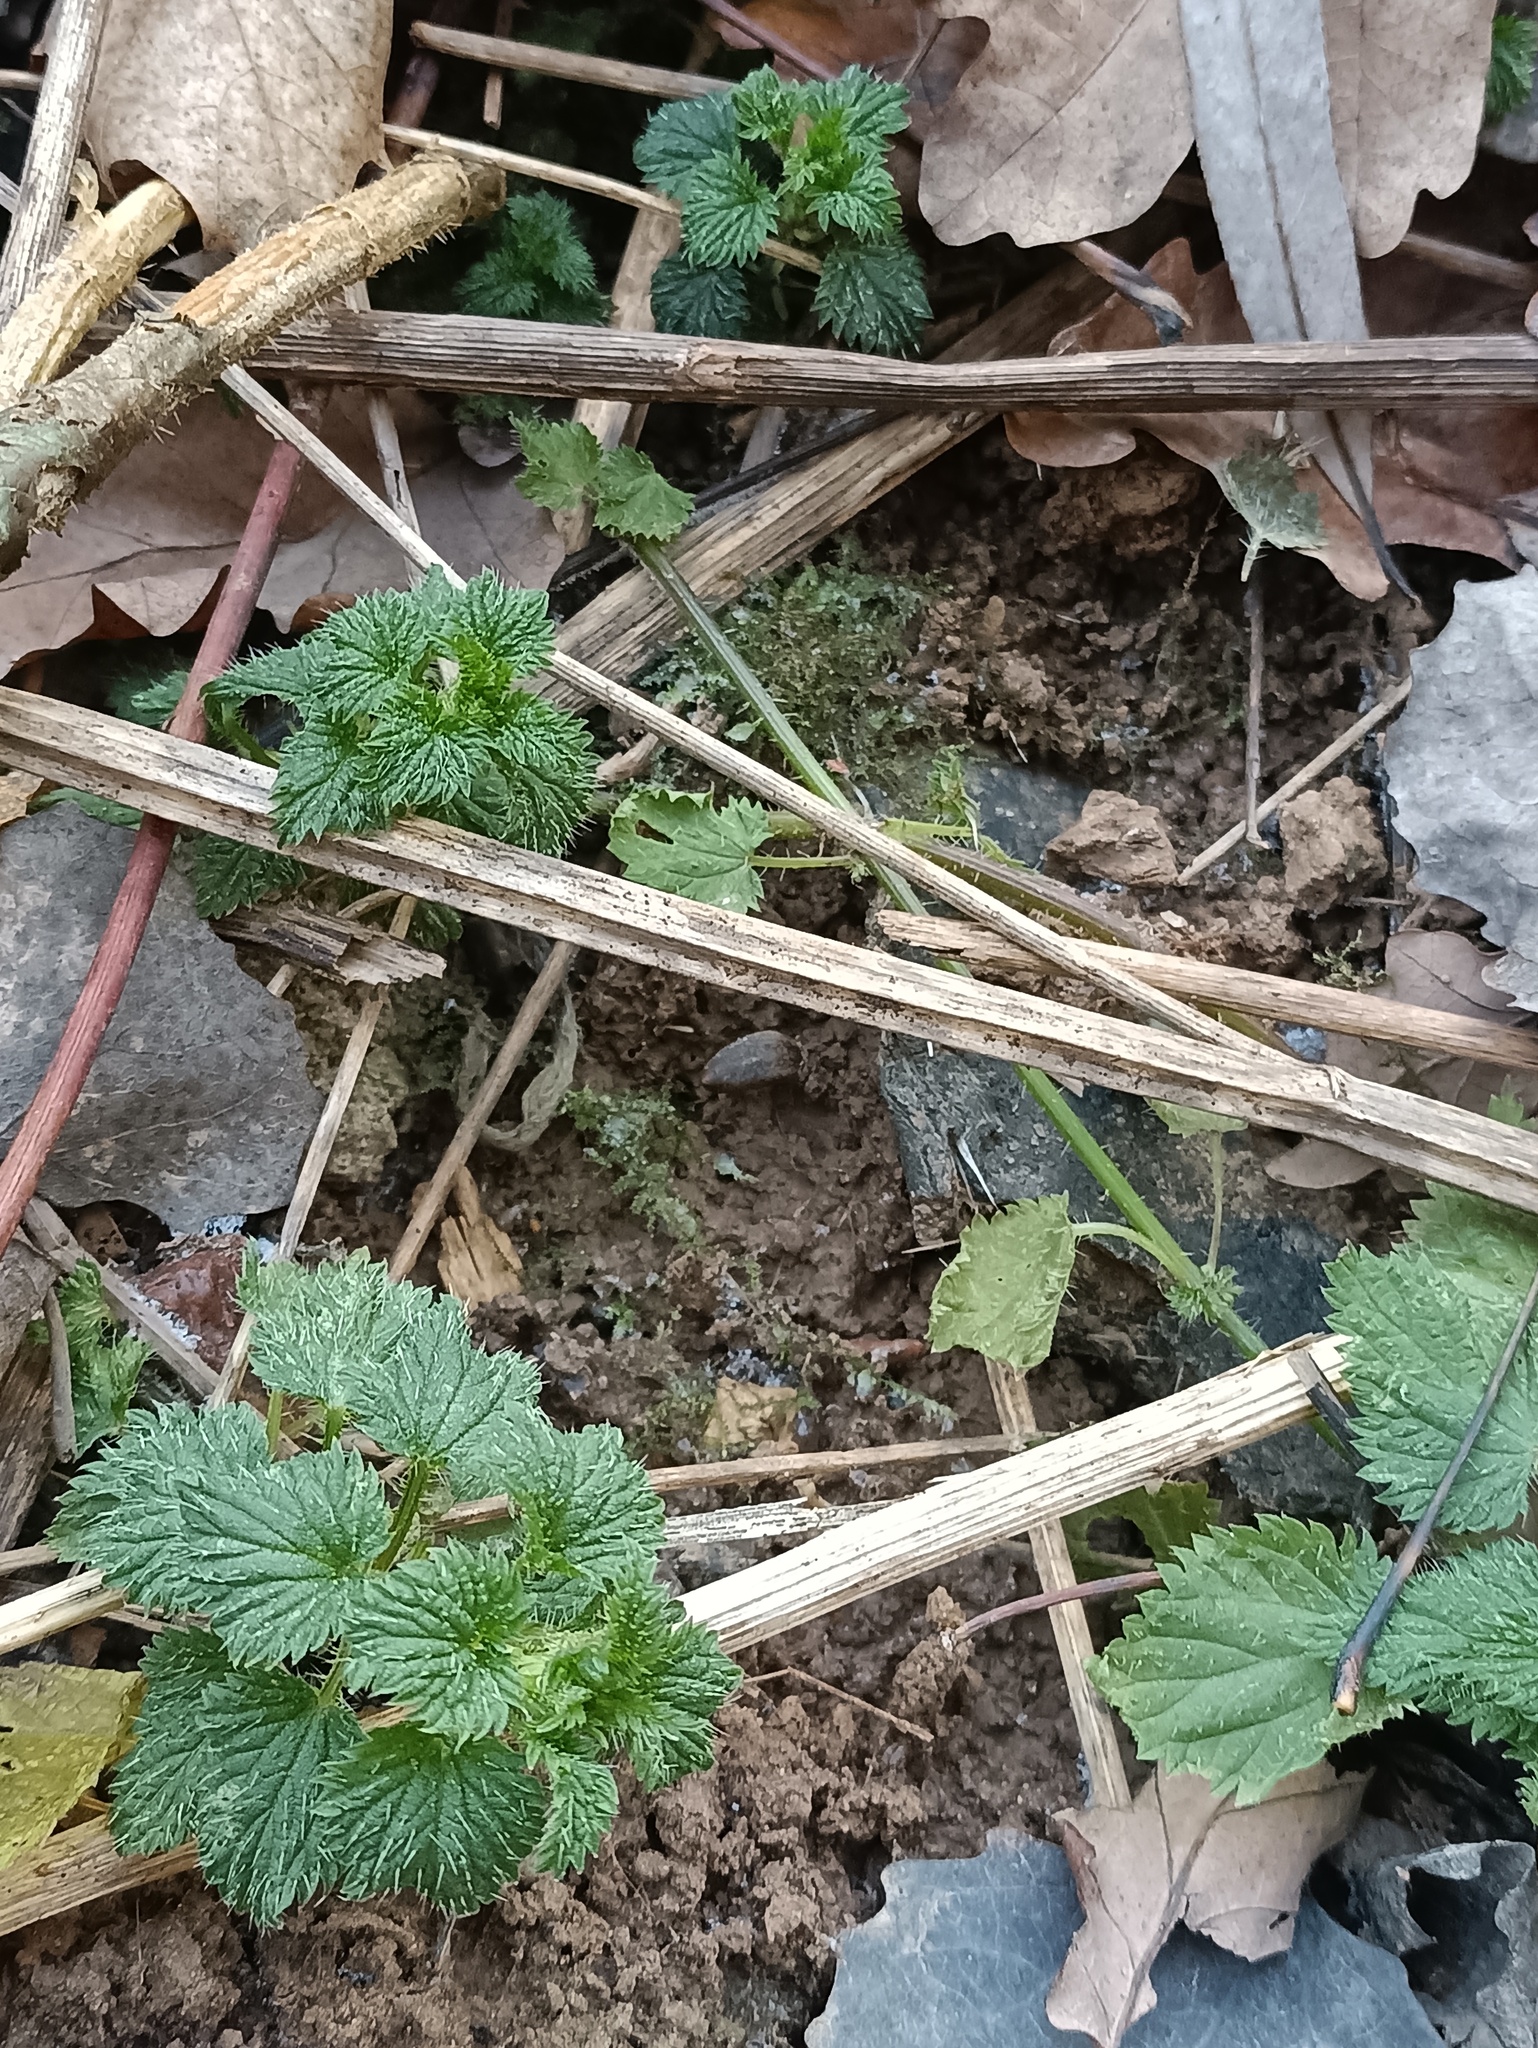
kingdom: Plantae
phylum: Tracheophyta
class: Magnoliopsida
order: Rosales
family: Urticaceae
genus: Urtica
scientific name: Urtica dioica
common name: Common nettle
